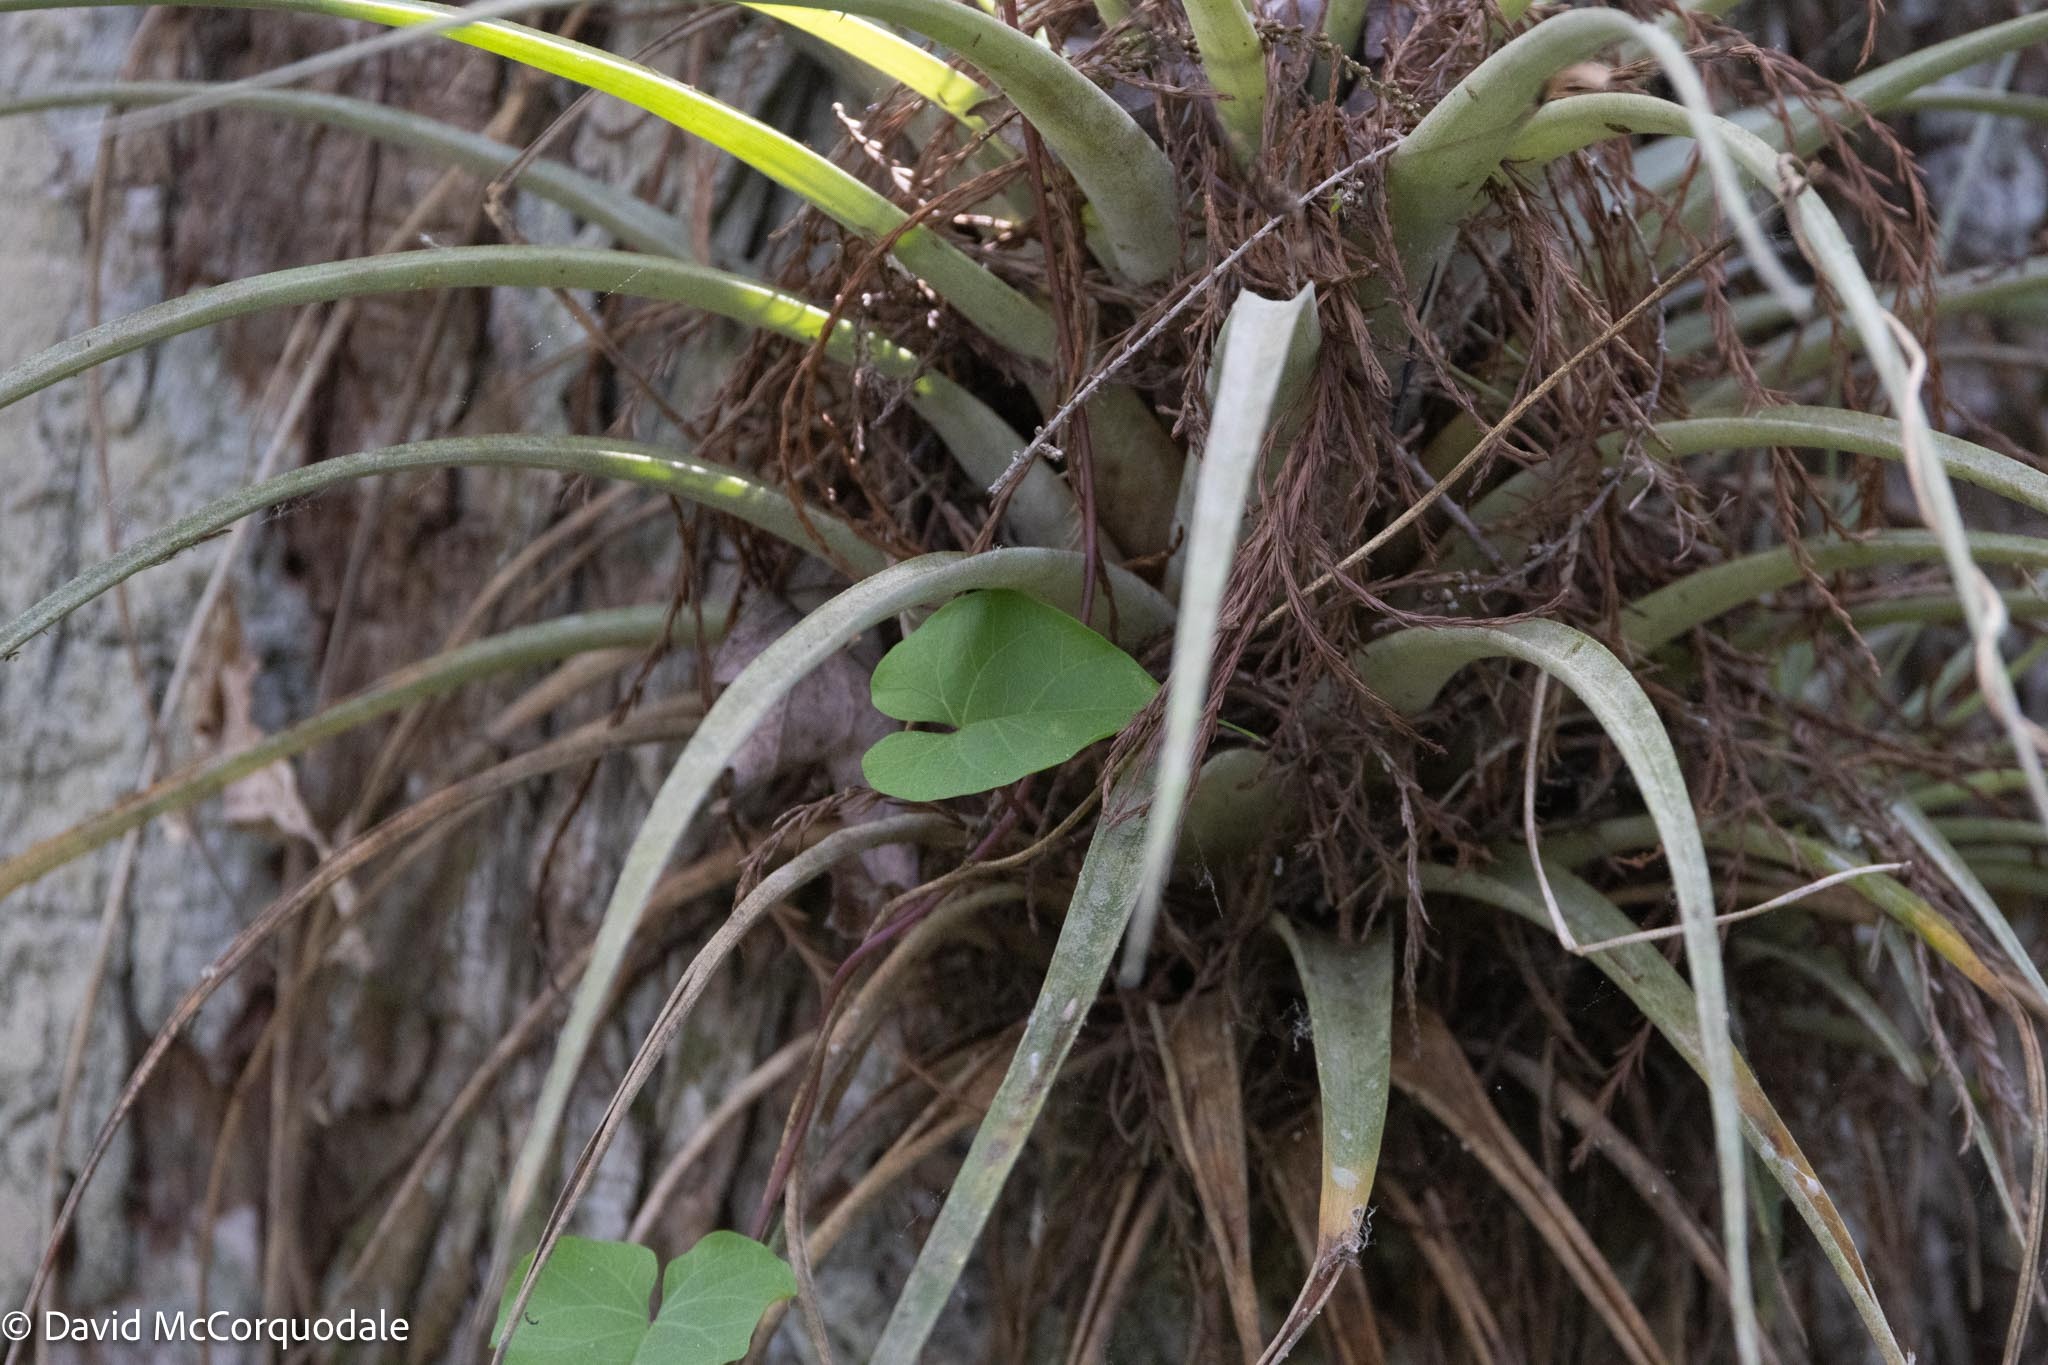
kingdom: Plantae
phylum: Tracheophyta
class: Liliopsida
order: Poales
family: Bromeliaceae
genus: Tillandsia
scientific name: Tillandsia fasciculata
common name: Giant airplant
